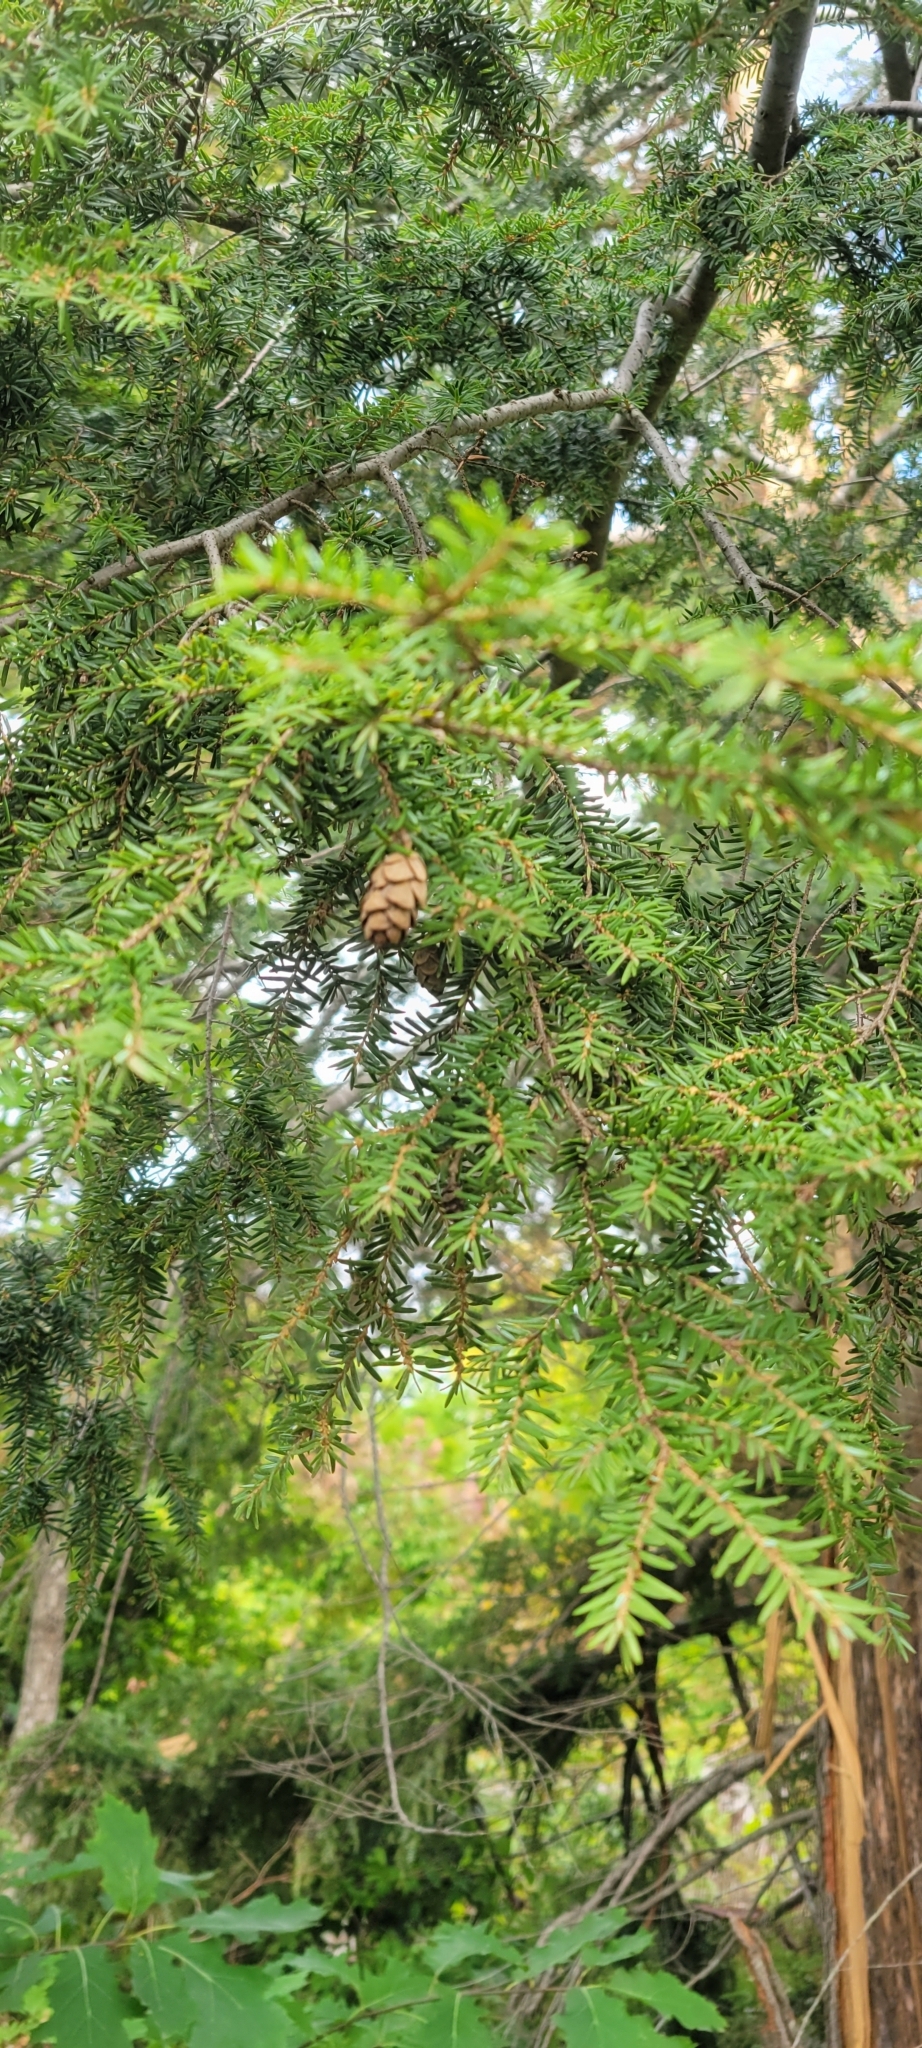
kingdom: Plantae
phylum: Tracheophyta
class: Pinopsida
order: Pinales
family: Pinaceae
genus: Tsuga
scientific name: Tsuga canadensis
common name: Eastern hemlock
